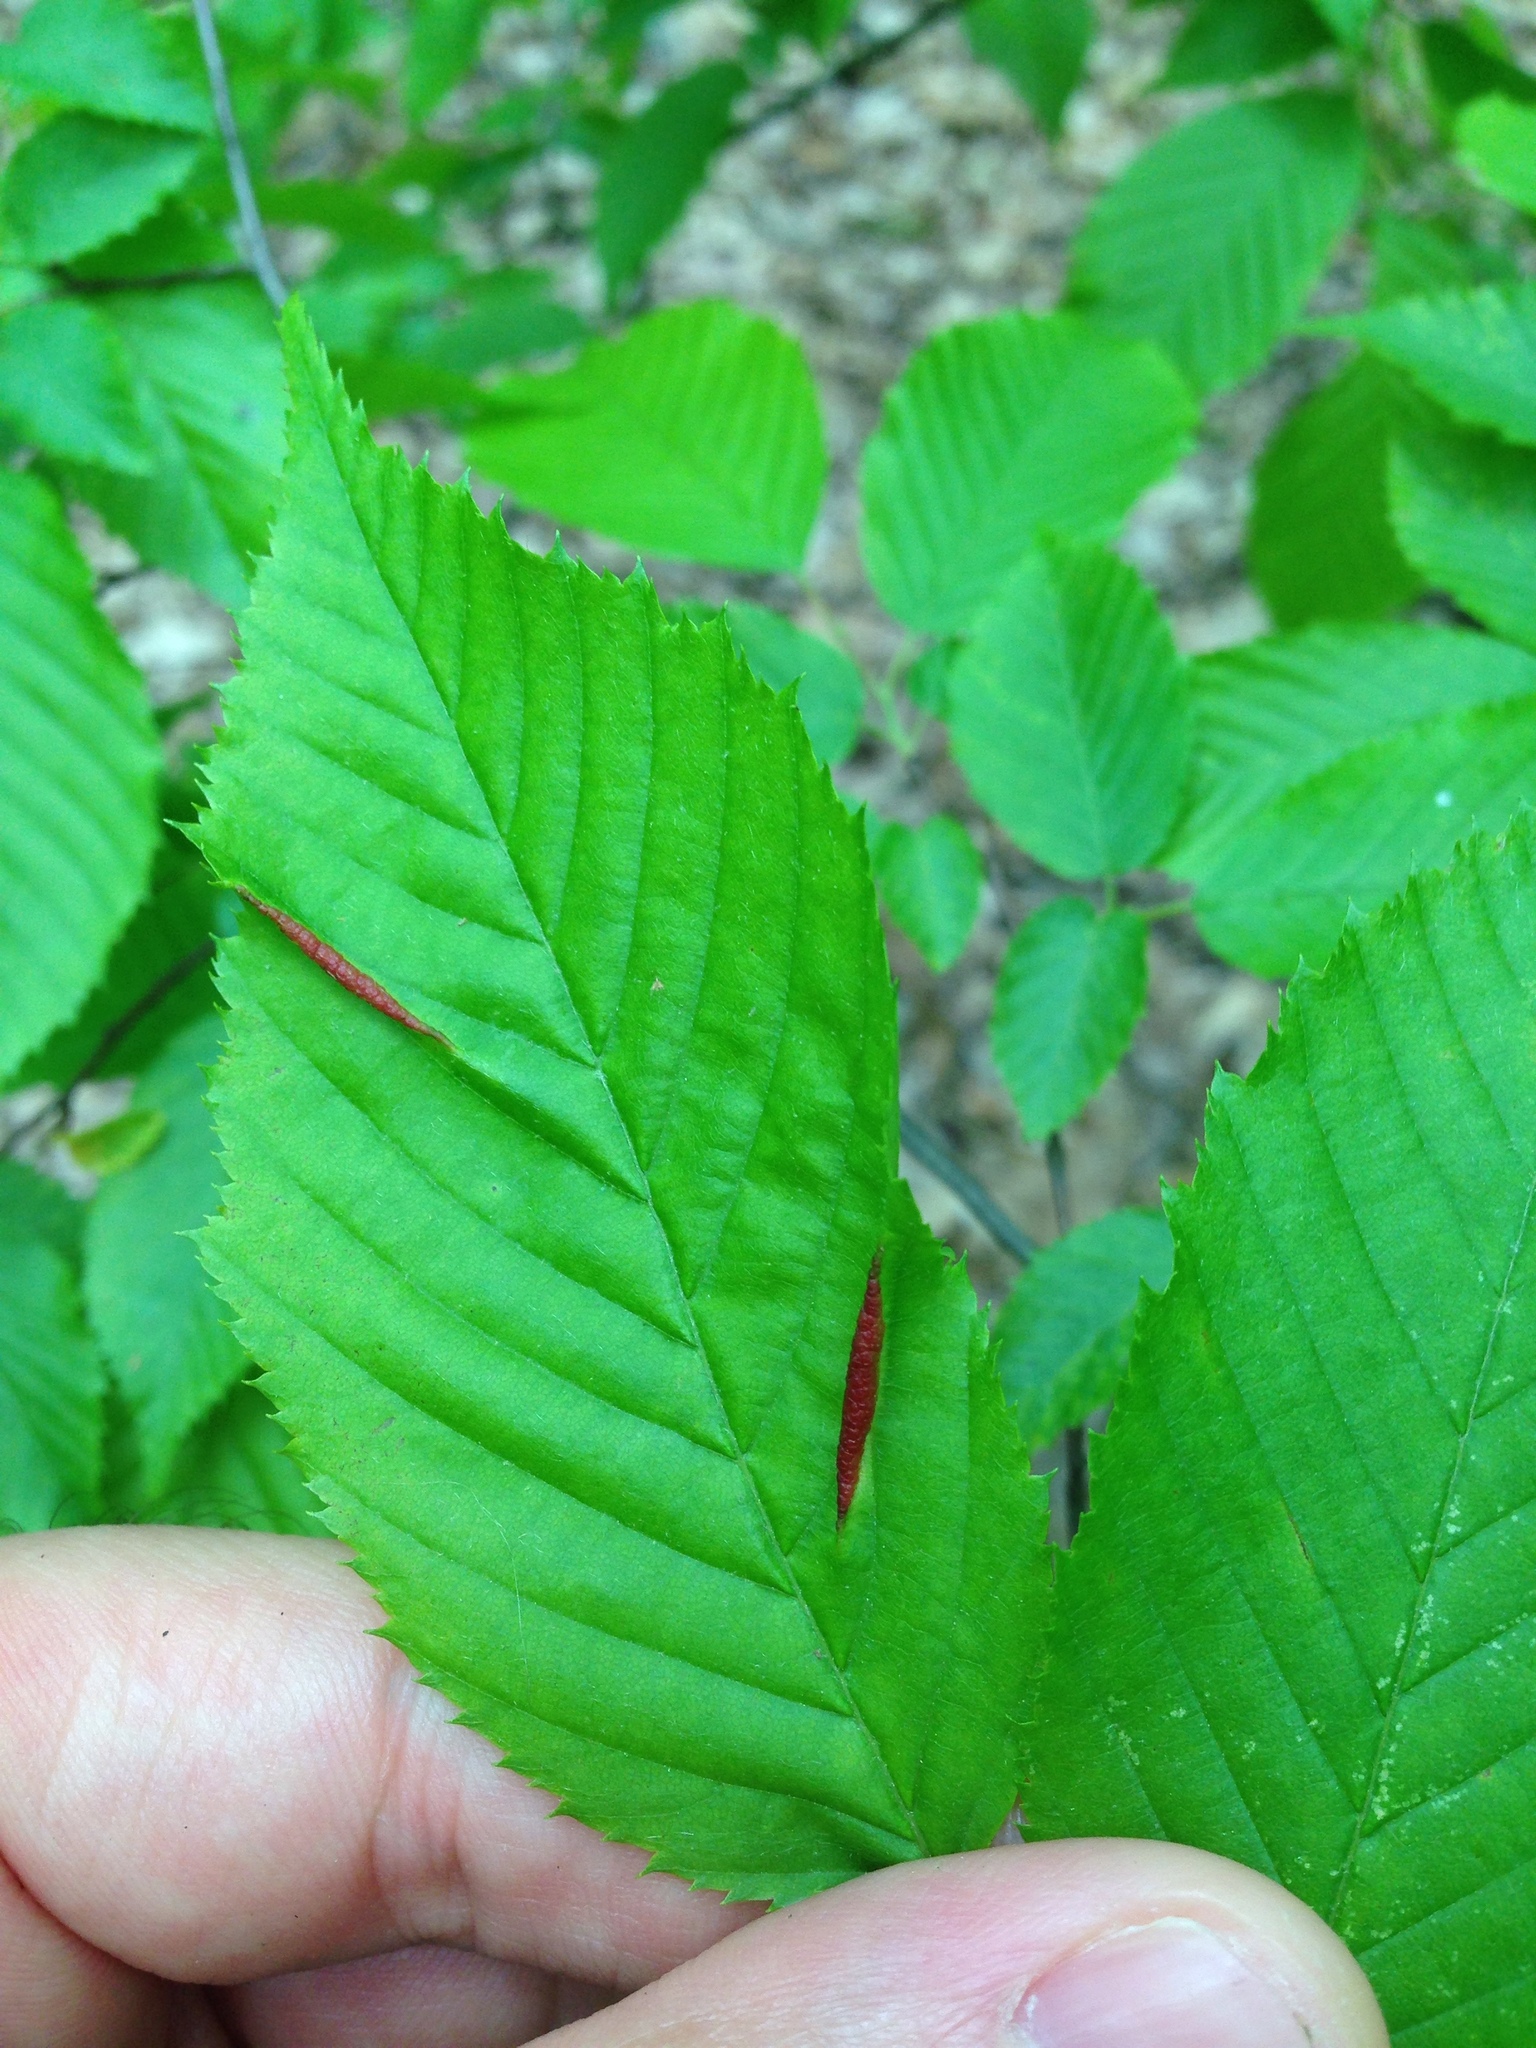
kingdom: Animalia
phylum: Arthropoda
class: Insecta
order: Diptera
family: Cecidomyiidae
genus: Dasineura
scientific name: Dasineura pudibunda
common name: Hornbeam leaf gall midge
